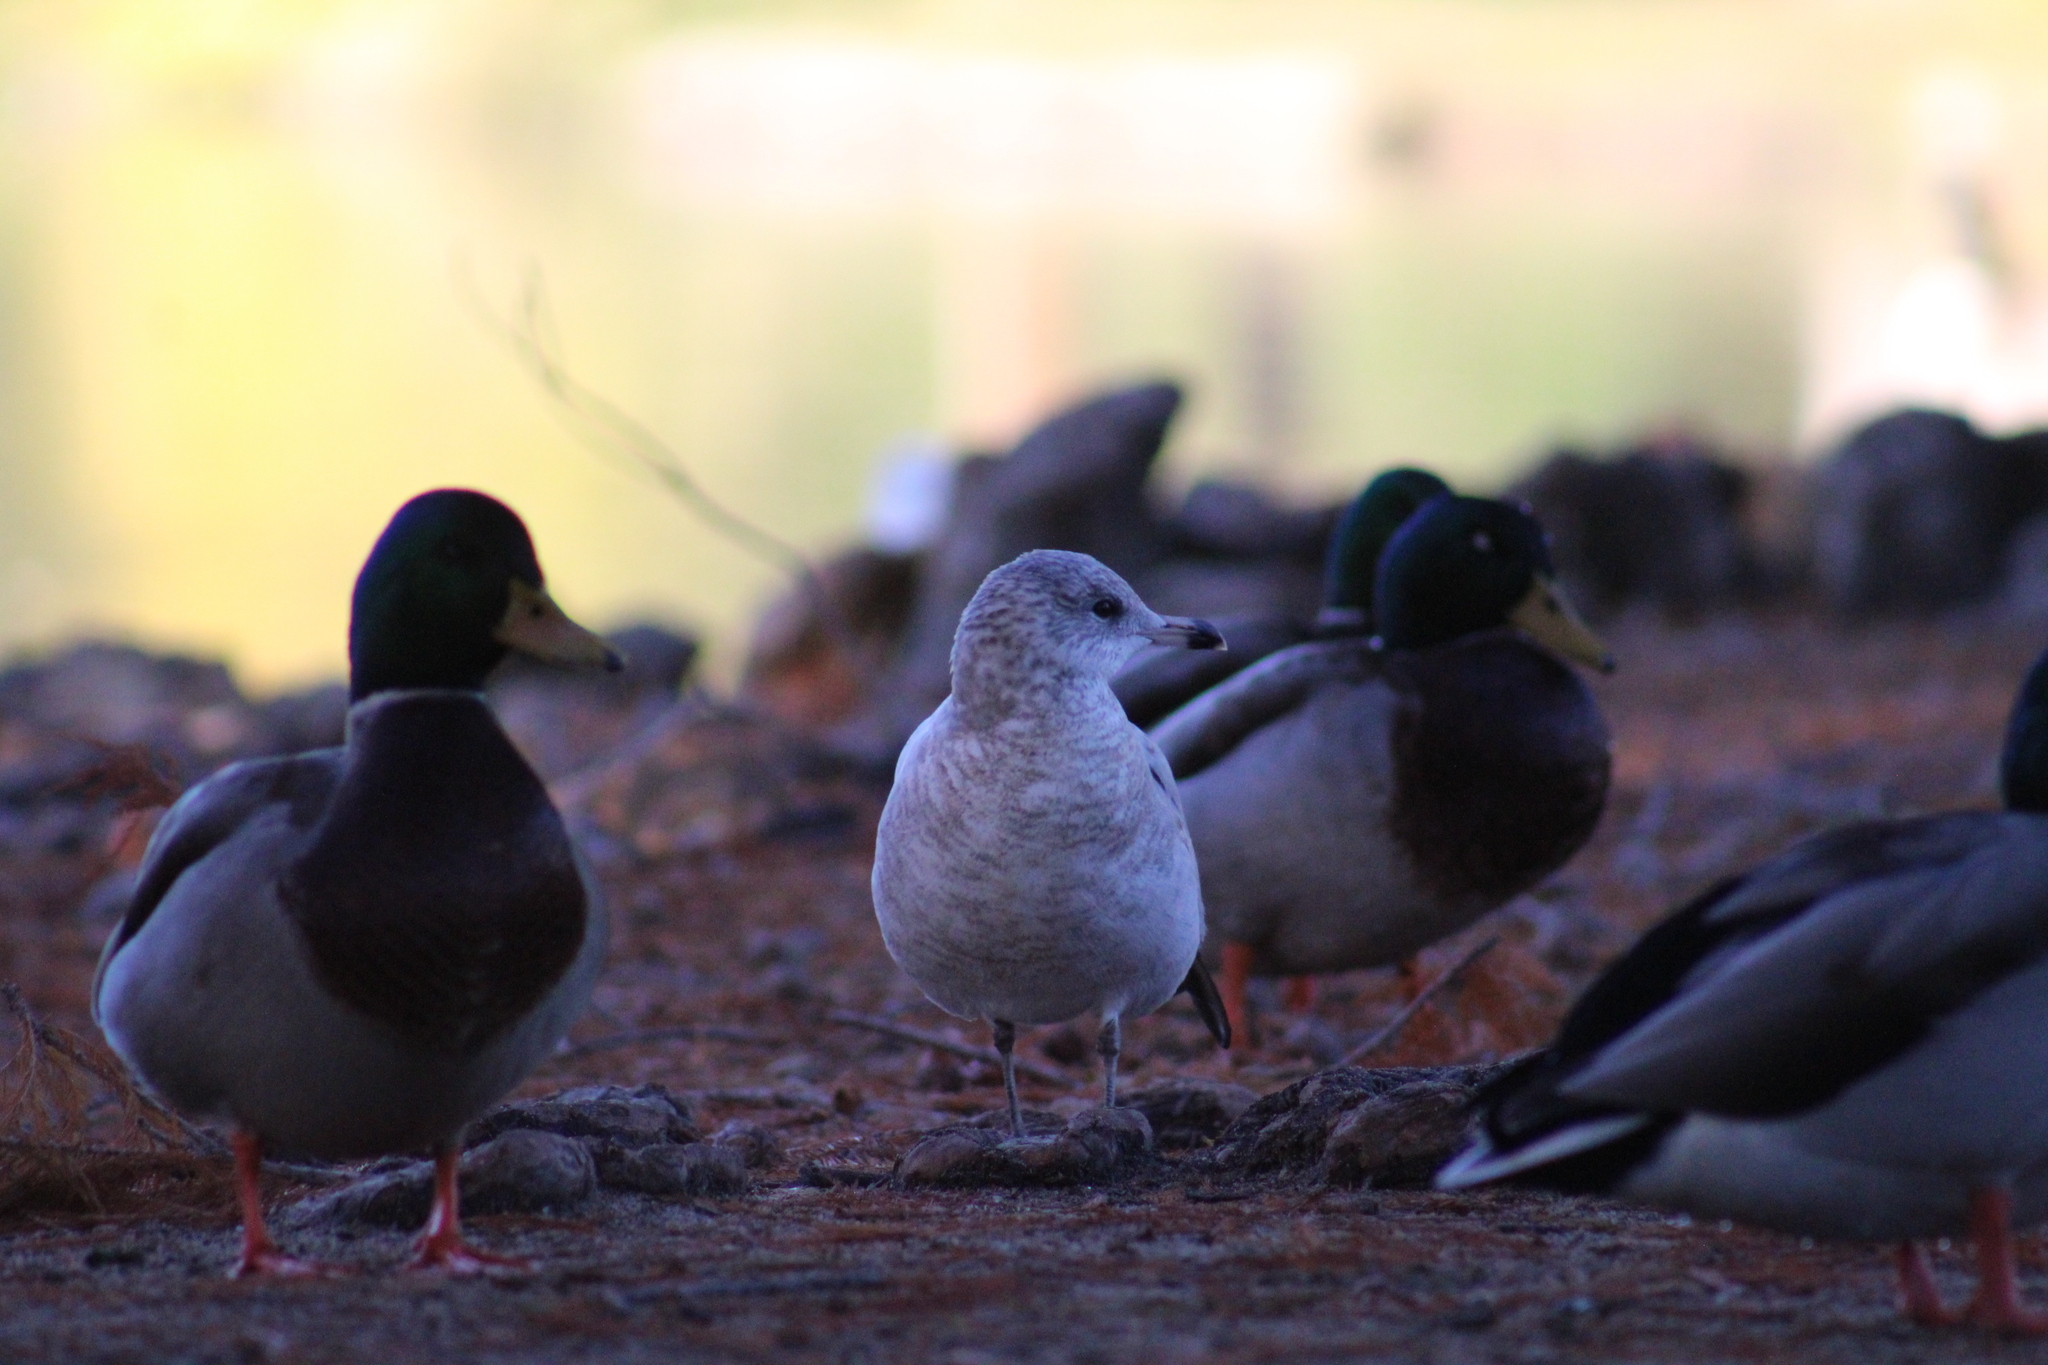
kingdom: Animalia
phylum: Chordata
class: Aves
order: Charadriiformes
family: Laridae
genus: Larus
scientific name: Larus delawarensis
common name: Ring-billed gull
